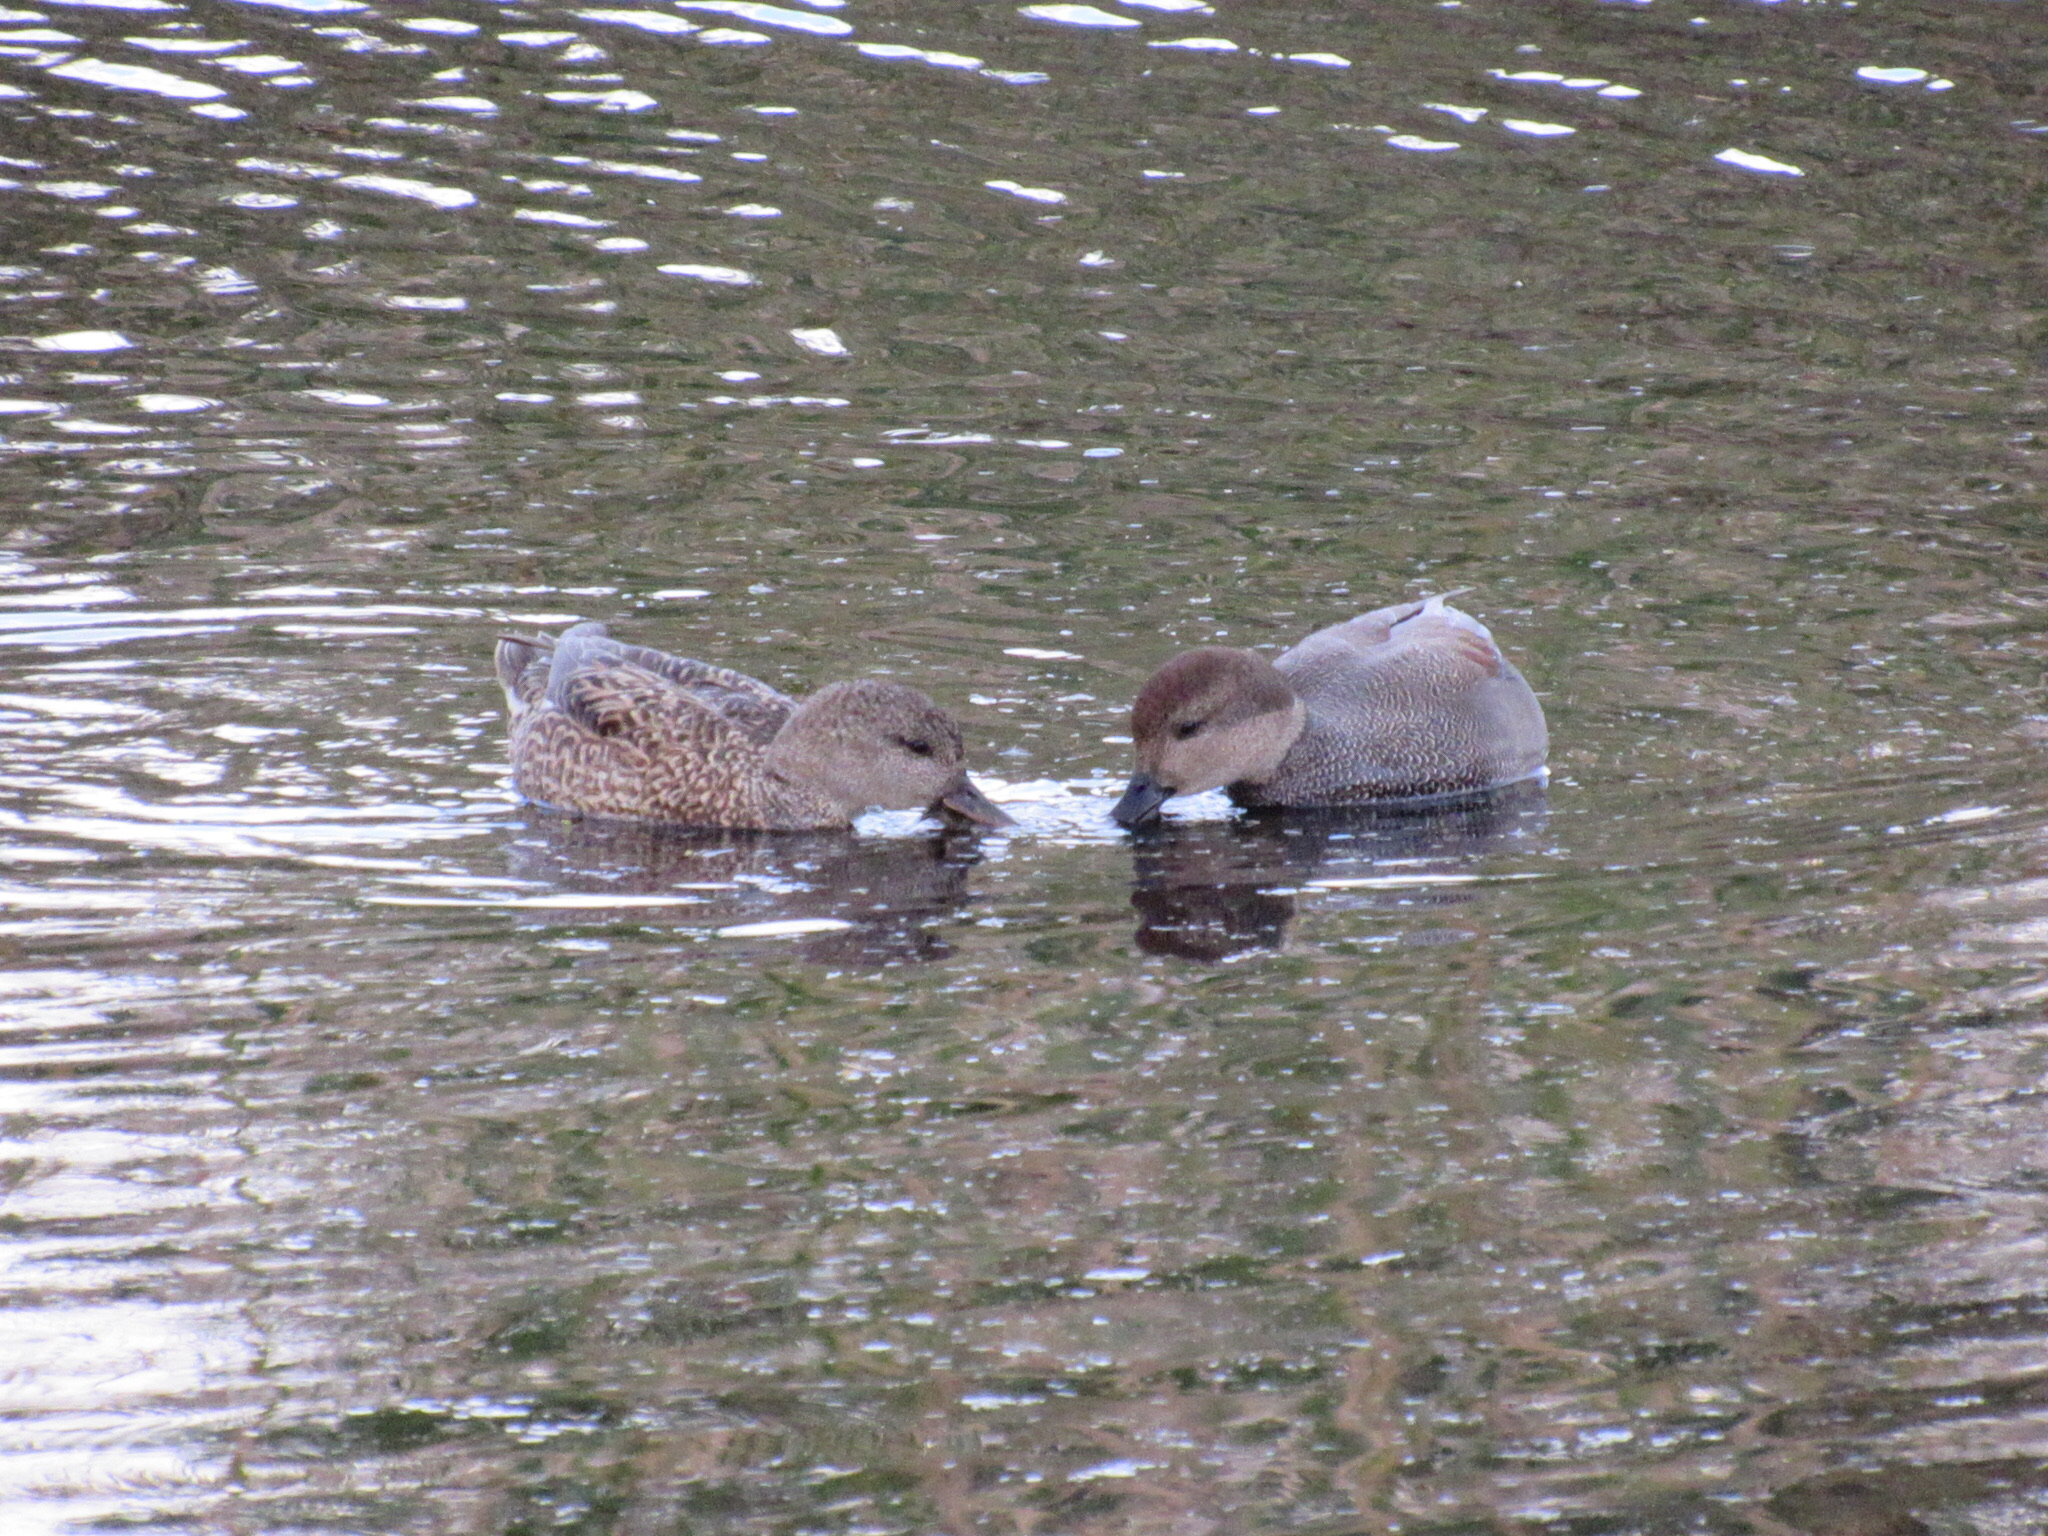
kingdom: Animalia
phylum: Chordata
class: Aves
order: Anseriformes
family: Anatidae
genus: Mareca
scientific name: Mareca strepera
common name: Gadwall
